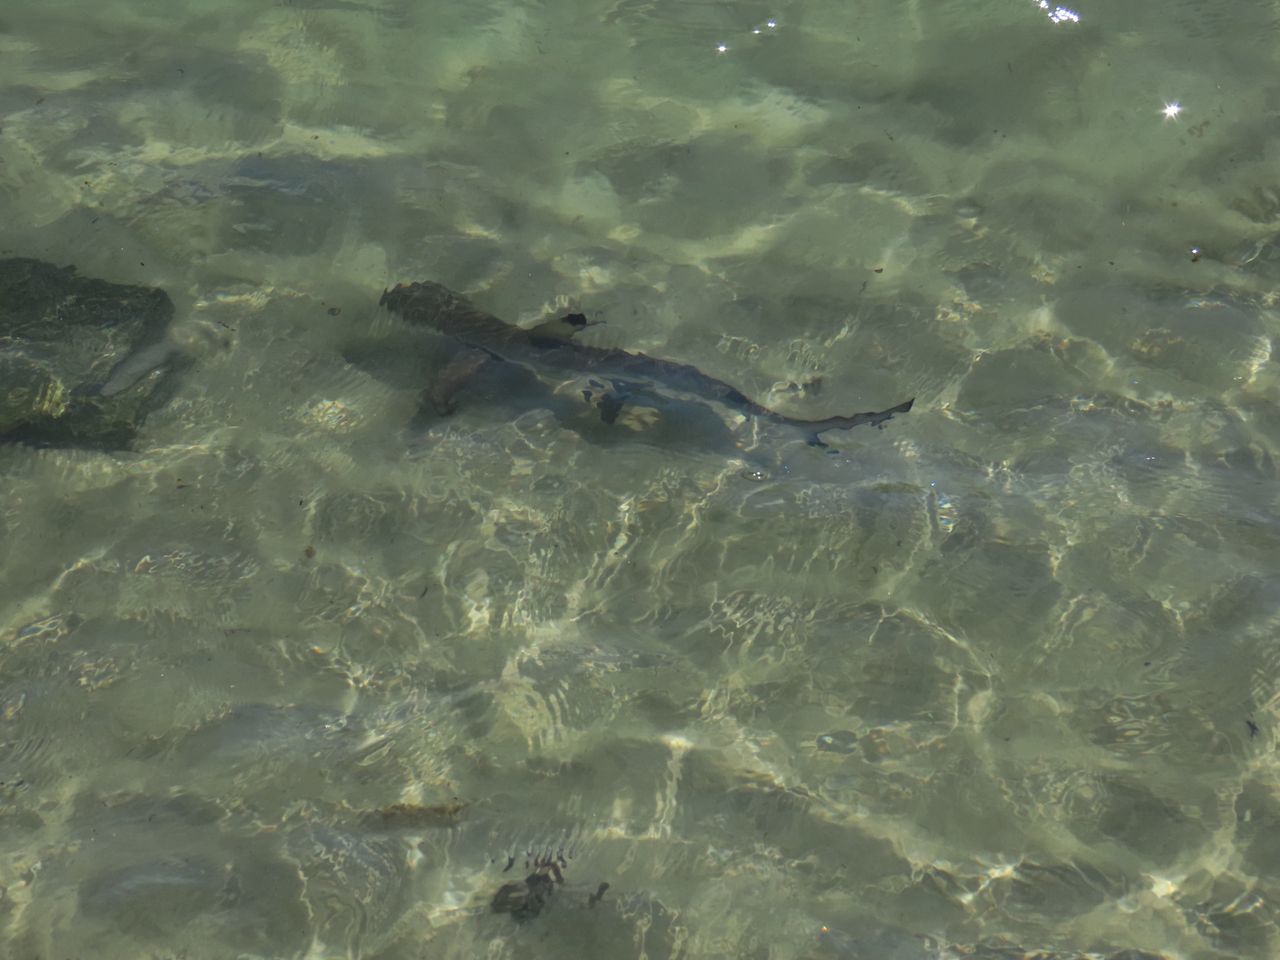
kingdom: Animalia
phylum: Chordata
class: Elasmobranchii
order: Carcharhiniformes
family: Carcharhinidae
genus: Carcharhinus
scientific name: Carcharhinus melanopterus
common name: Blacktip reef shark
